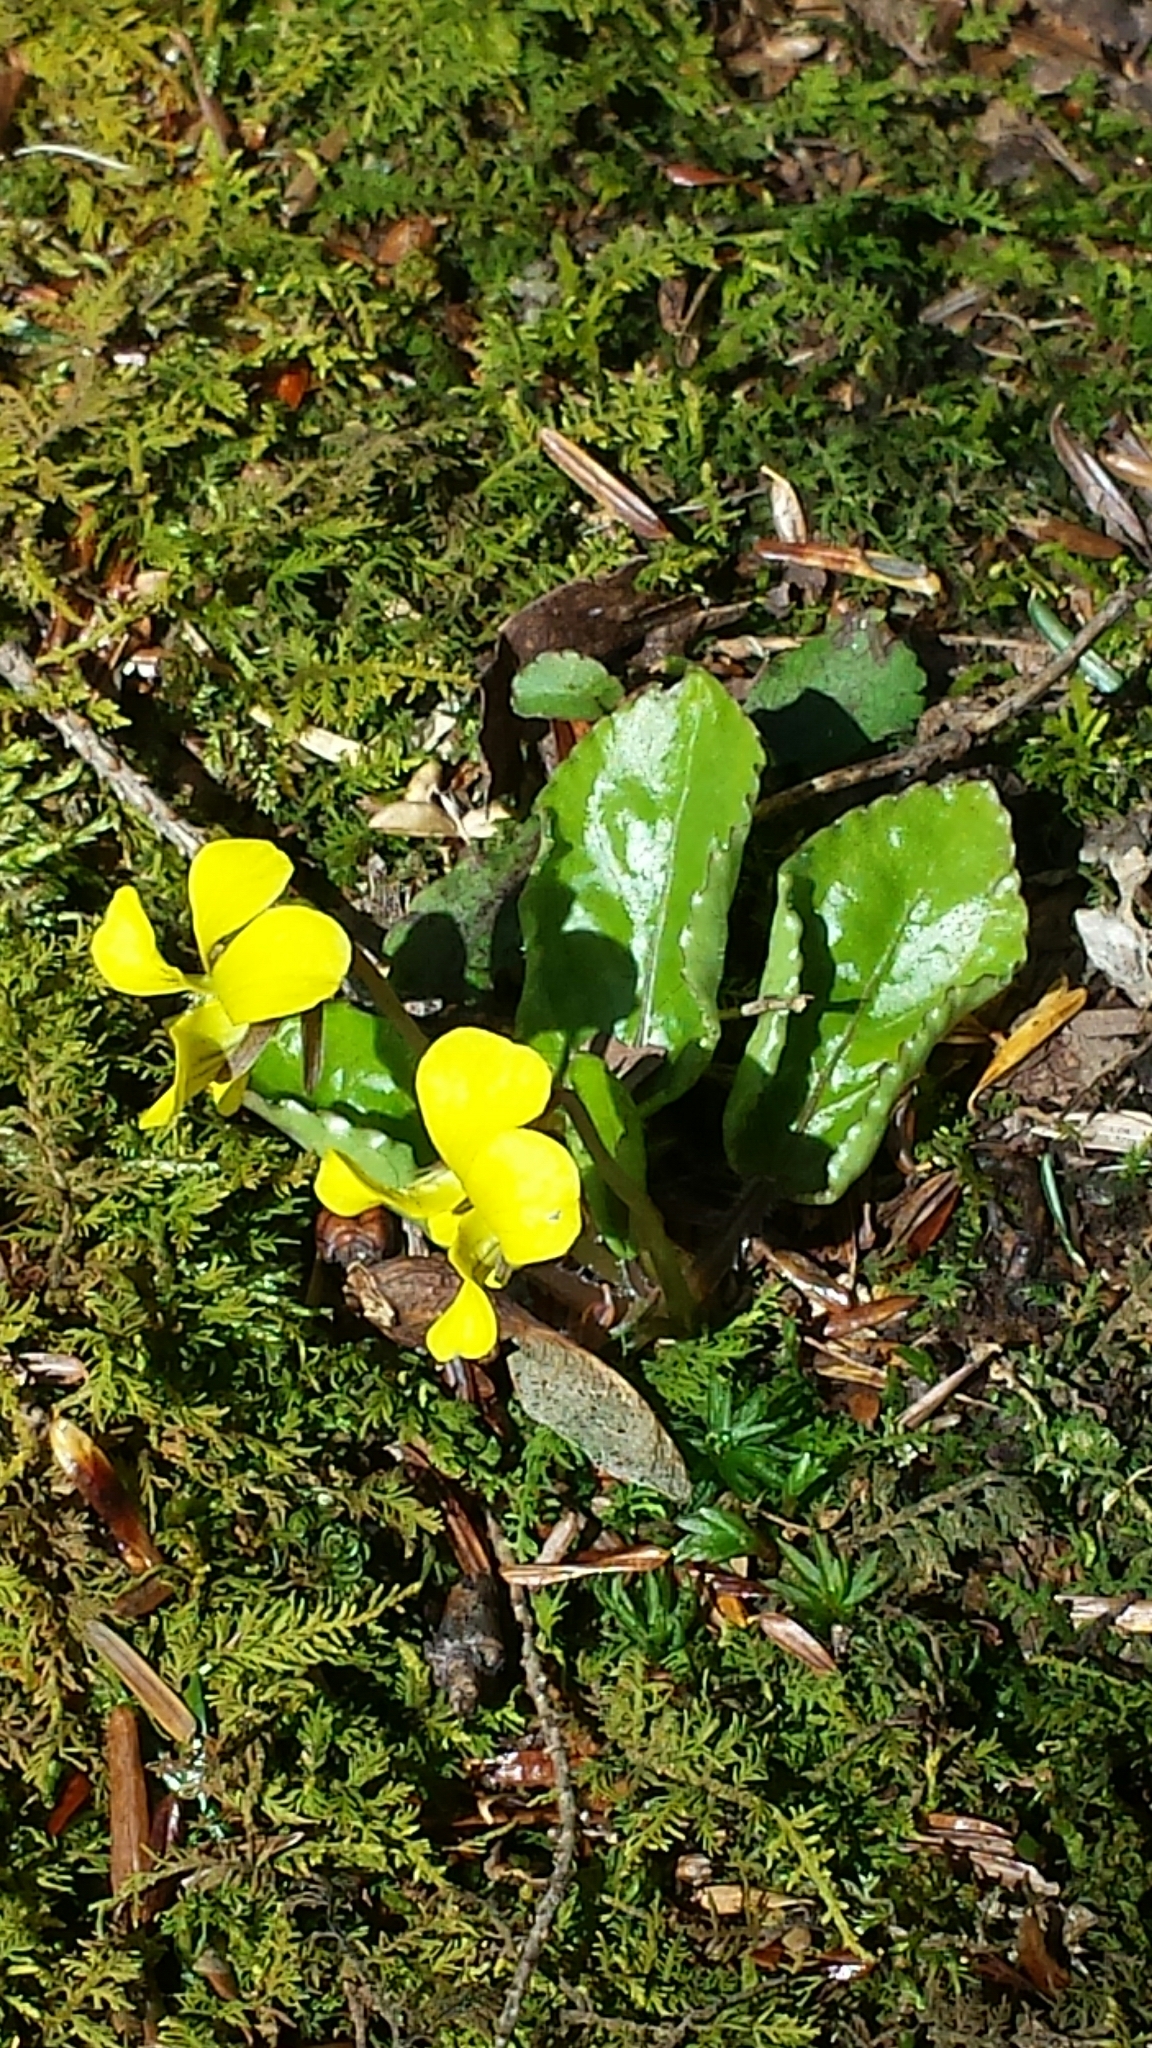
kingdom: Plantae
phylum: Tracheophyta
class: Magnoliopsida
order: Malpighiales
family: Violaceae
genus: Viola
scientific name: Viola rotundifolia
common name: Early yellow violet
